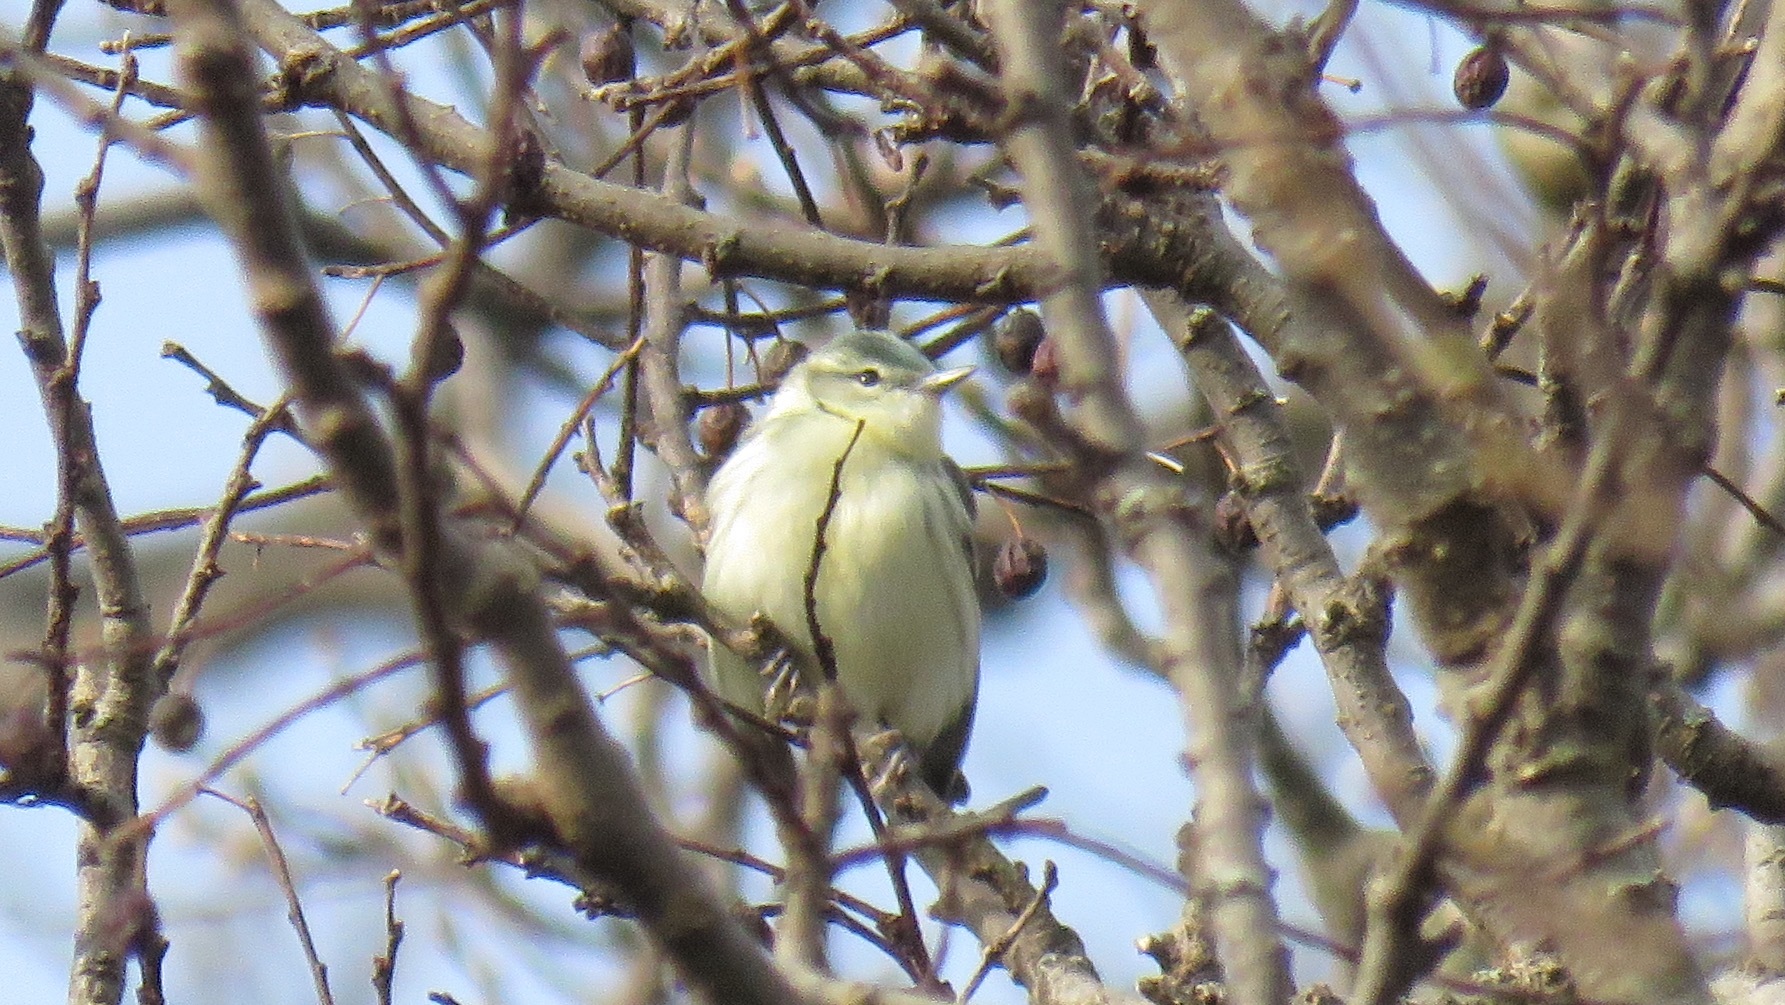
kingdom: Animalia
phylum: Chordata
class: Aves
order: Passeriformes
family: Parulidae
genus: Setophaga
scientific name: Setophaga cerulea
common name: Cerulean warbler
